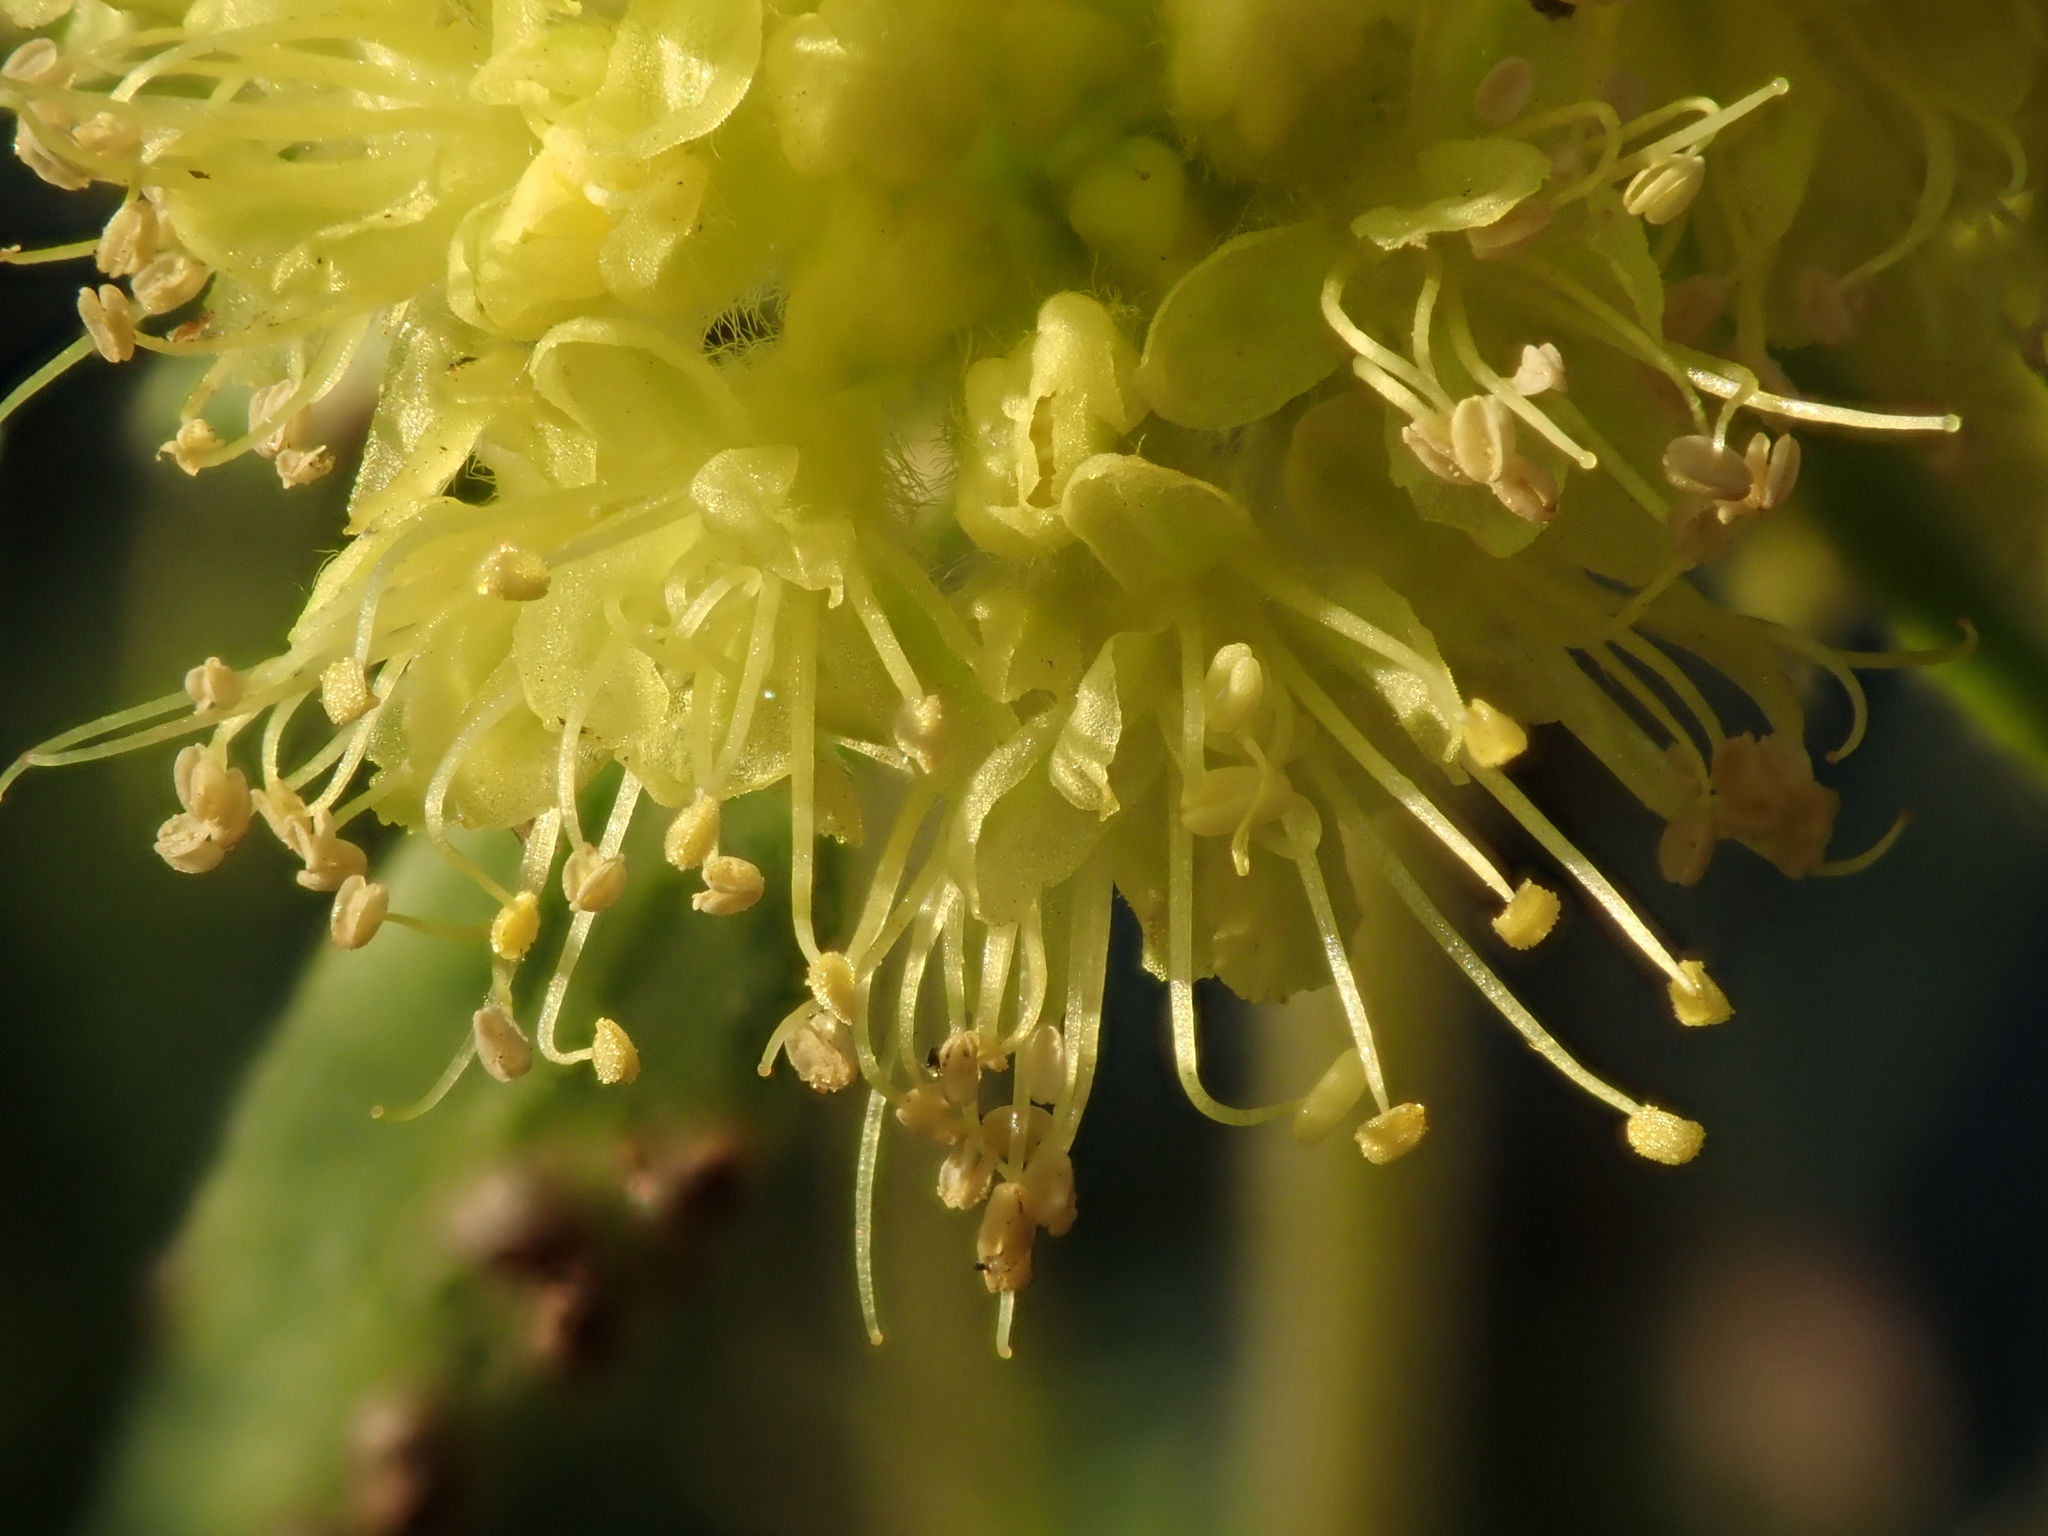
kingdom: Plantae
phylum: Tracheophyta
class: Magnoliopsida
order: Caryophyllales
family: Polygonaceae
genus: Eriogonum
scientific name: Eriogonum flavum
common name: Alpine golden wild buckwheat
